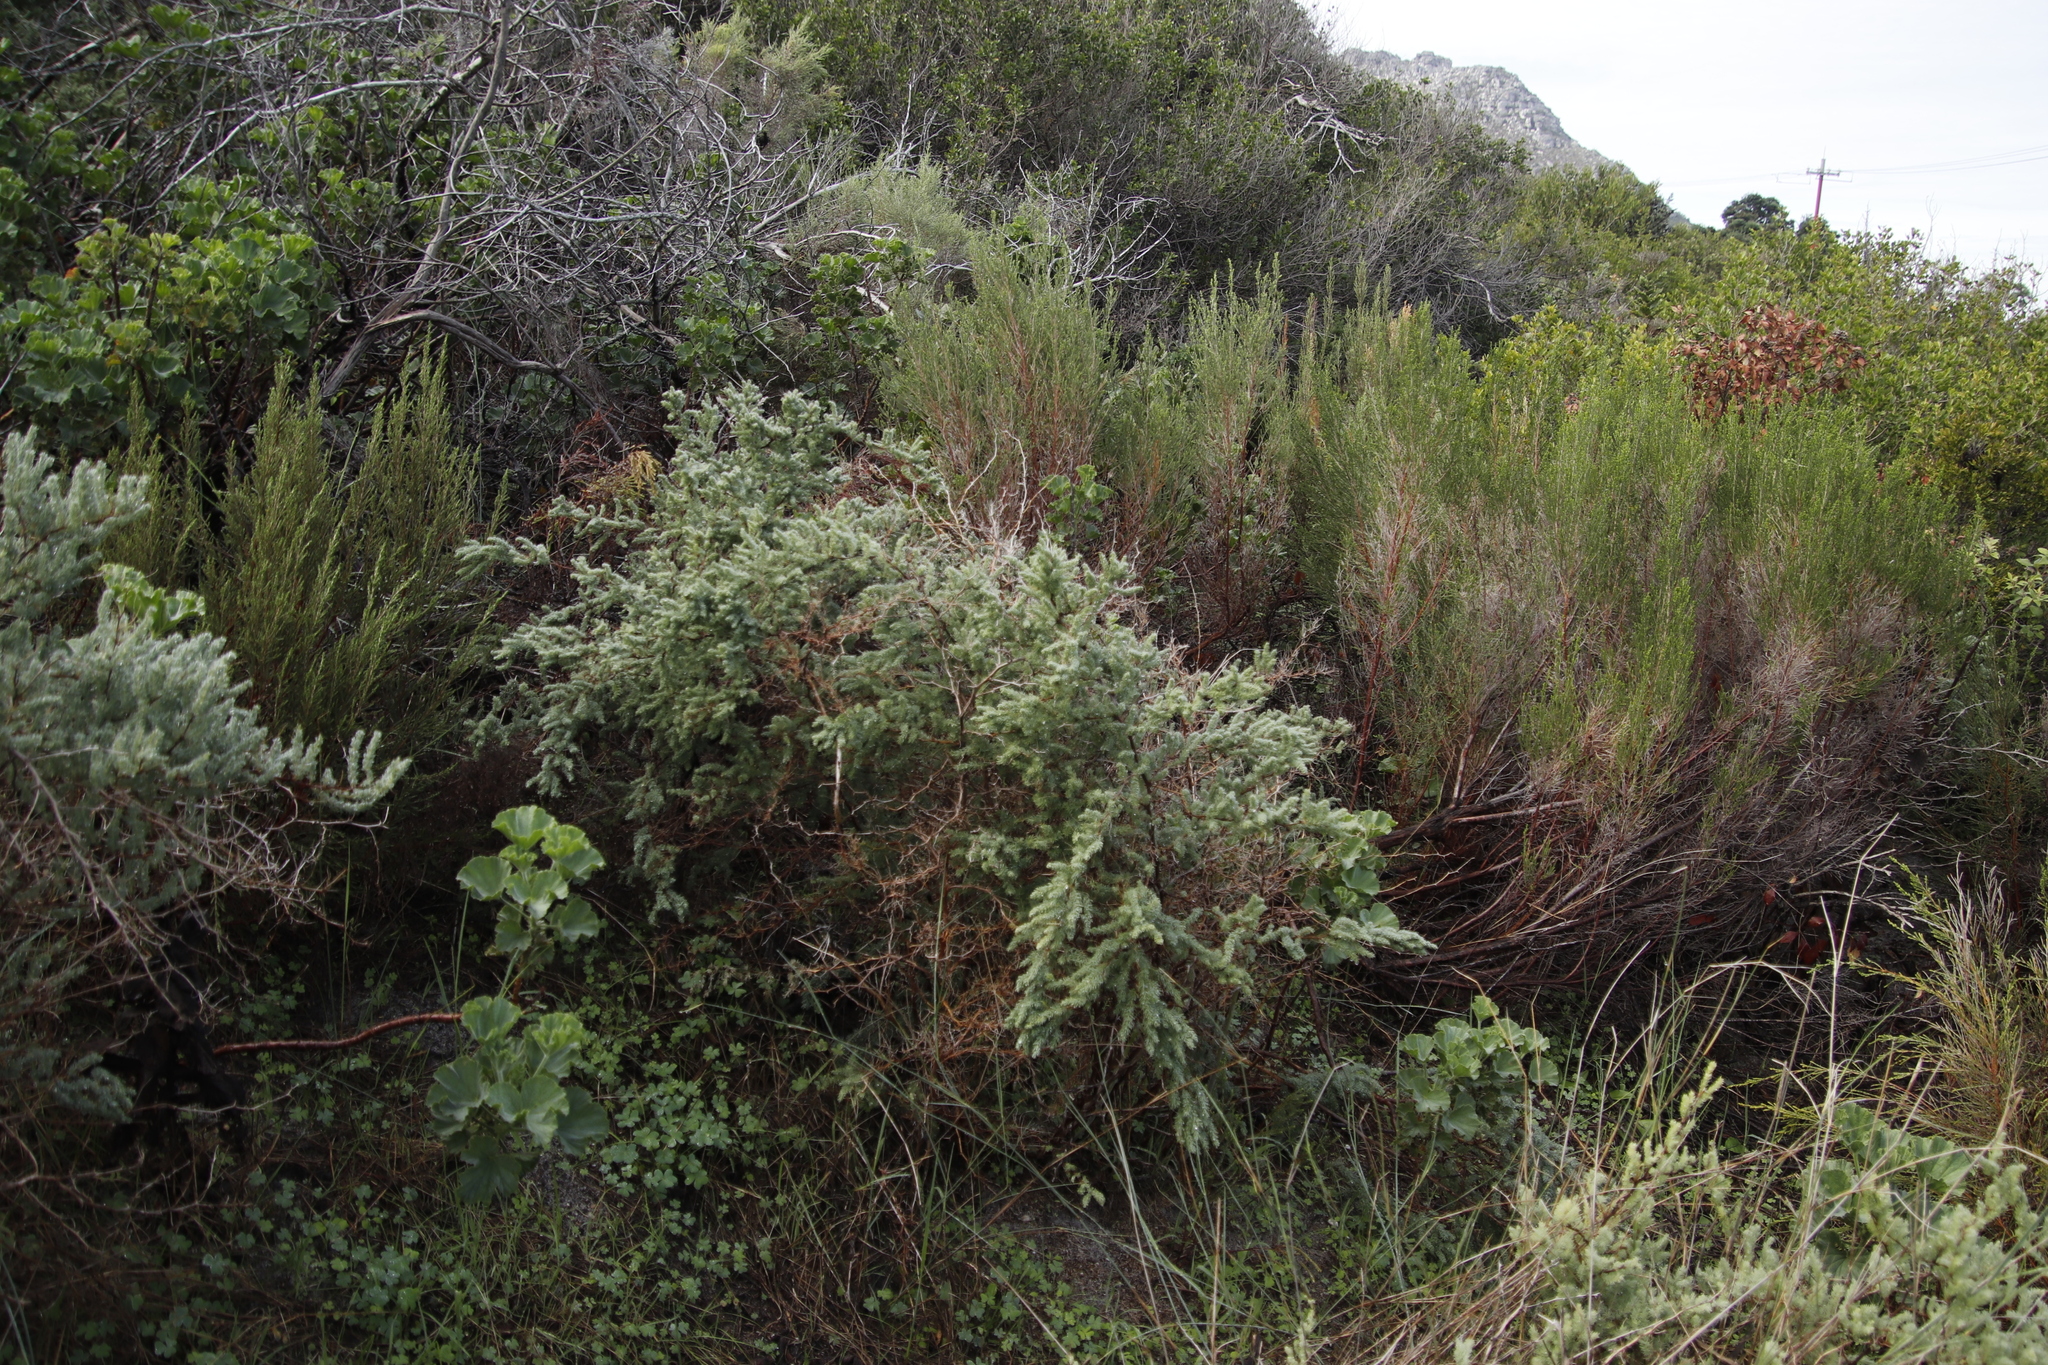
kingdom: Plantae
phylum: Tracheophyta
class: Liliopsida
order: Asparagales
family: Asparagaceae
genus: Asparagus
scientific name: Asparagus rubicundus
